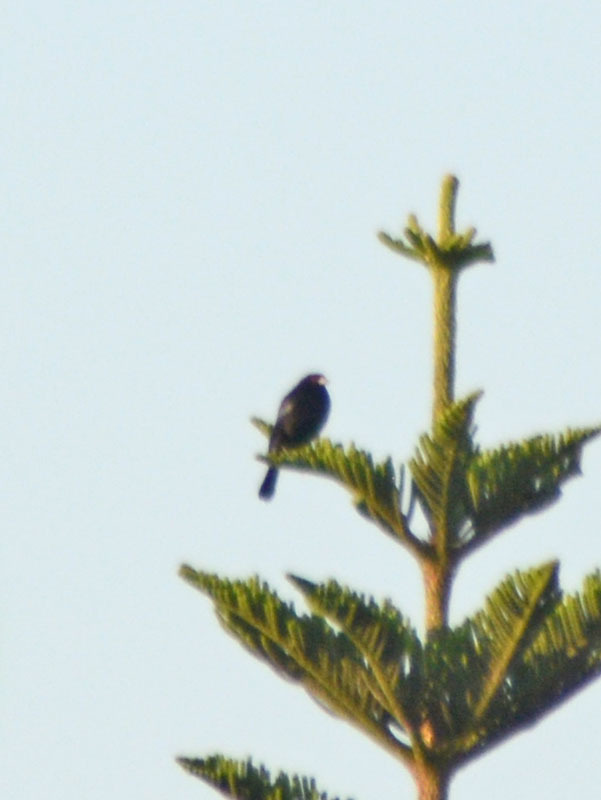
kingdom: Animalia
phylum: Chordata
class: Aves
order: Passeriformes
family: Icteridae
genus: Molothrus
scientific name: Molothrus aeneus
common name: Bronzed cowbird
